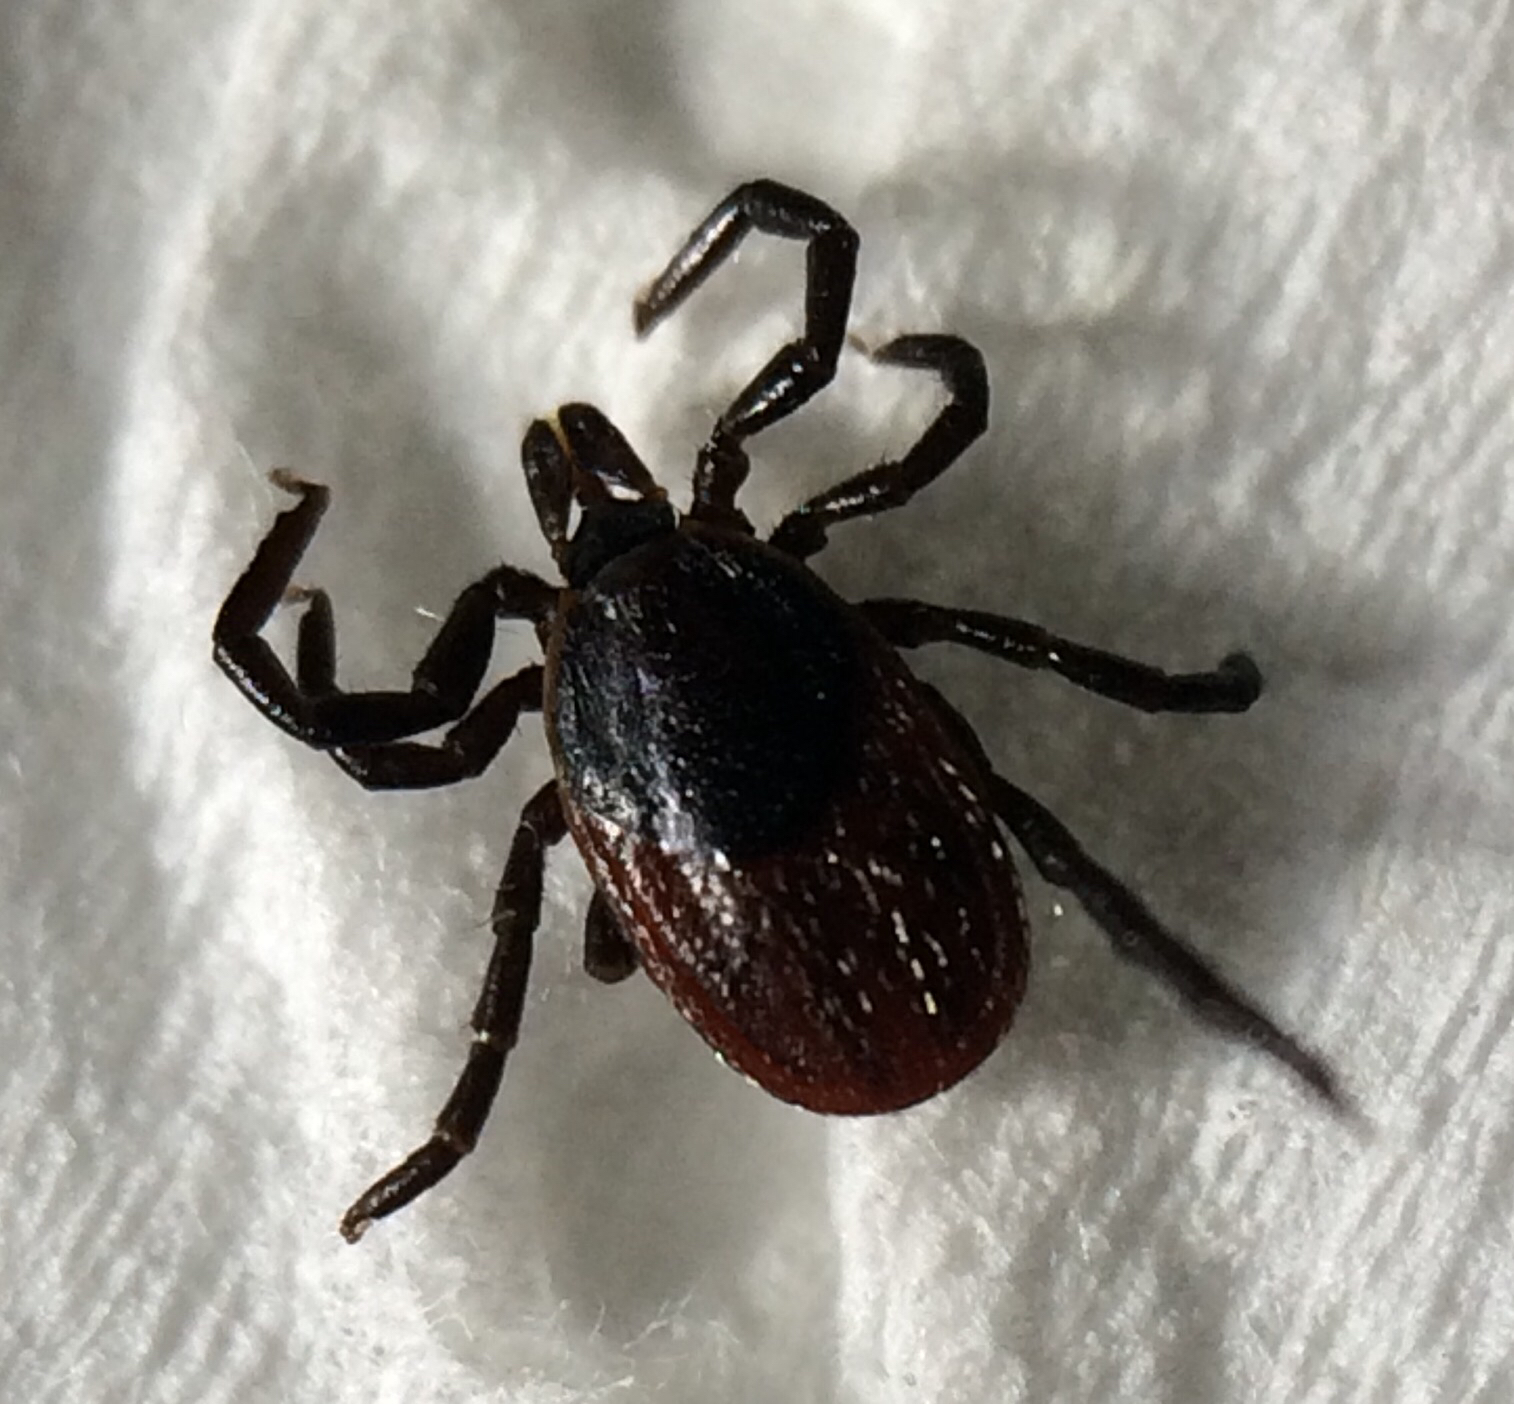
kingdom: Animalia
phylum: Arthropoda
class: Arachnida
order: Ixodida
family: Ixodidae
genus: Ixodes
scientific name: Ixodes pacificus
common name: California black-legged tick
